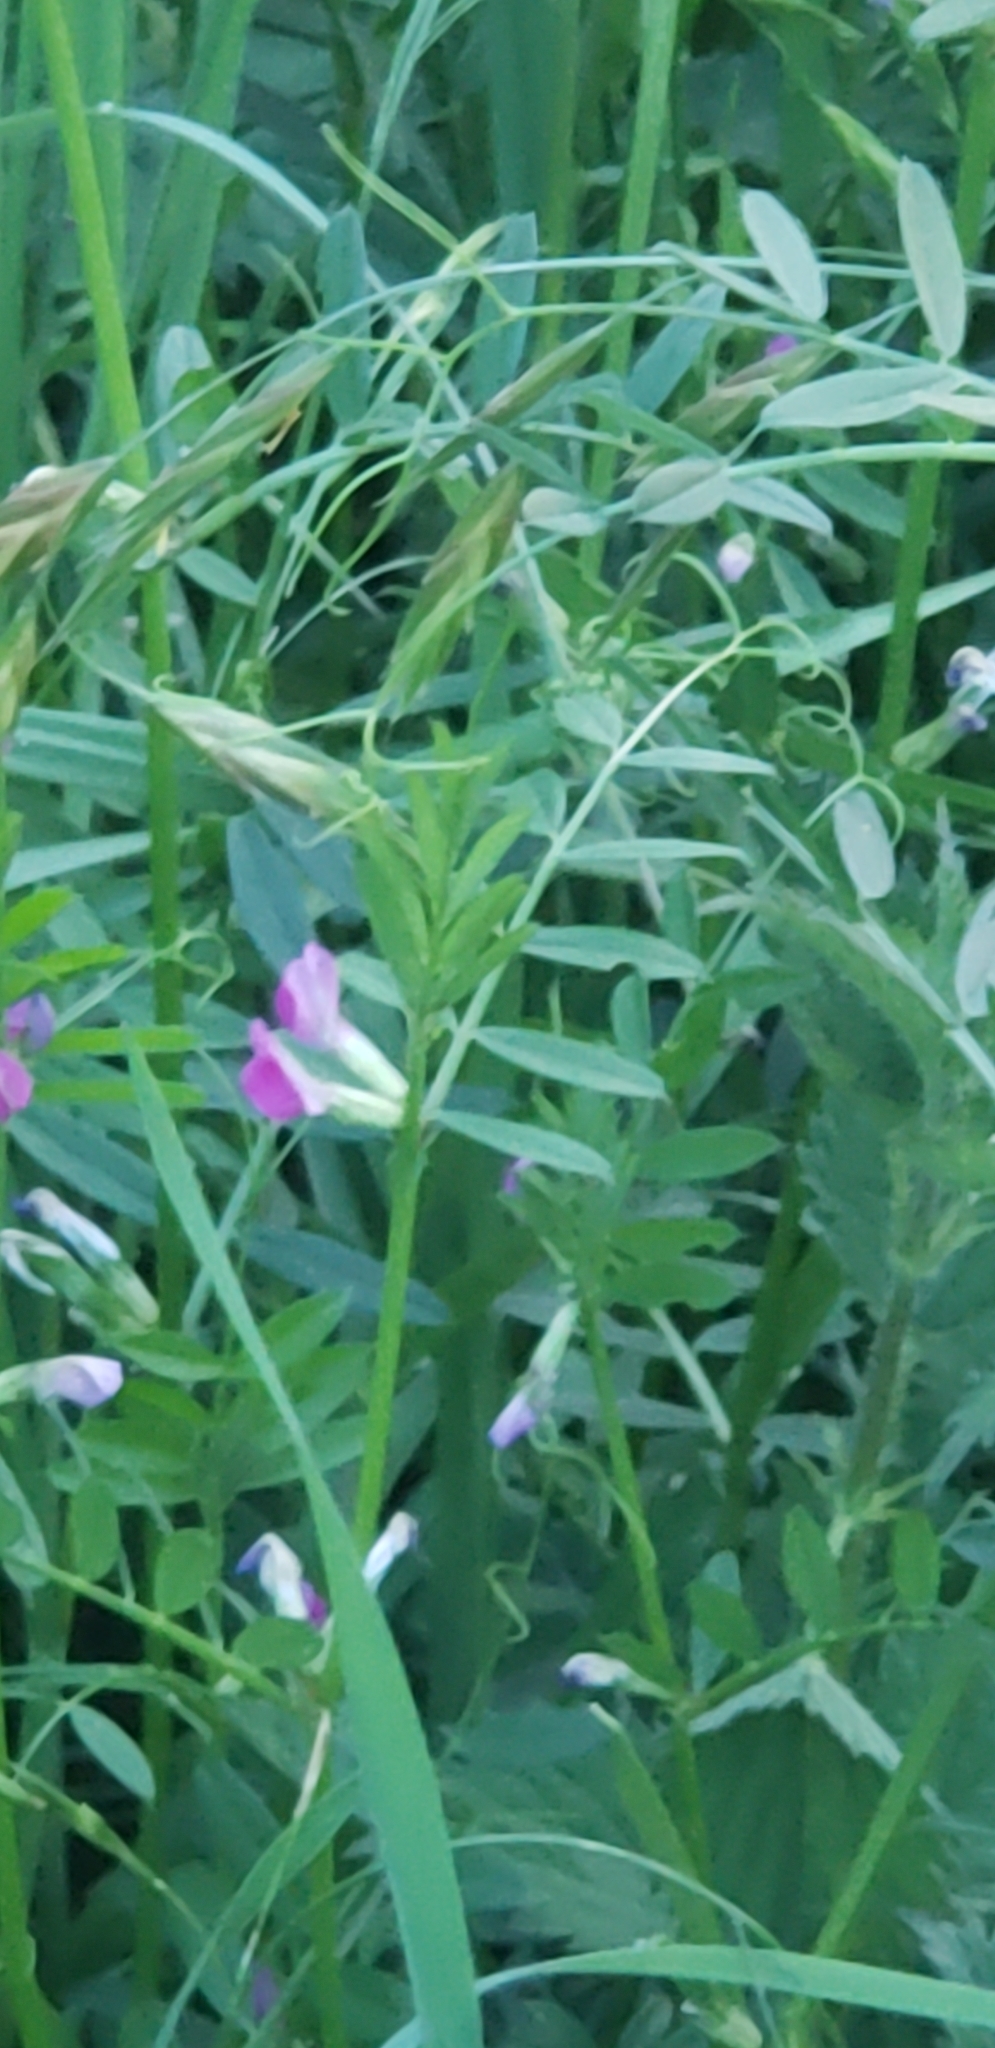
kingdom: Plantae
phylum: Tracheophyta
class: Magnoliopsida
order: Fabales
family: Fabaceae
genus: Vicia
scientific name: Vicia sativa
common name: Garden vetch
